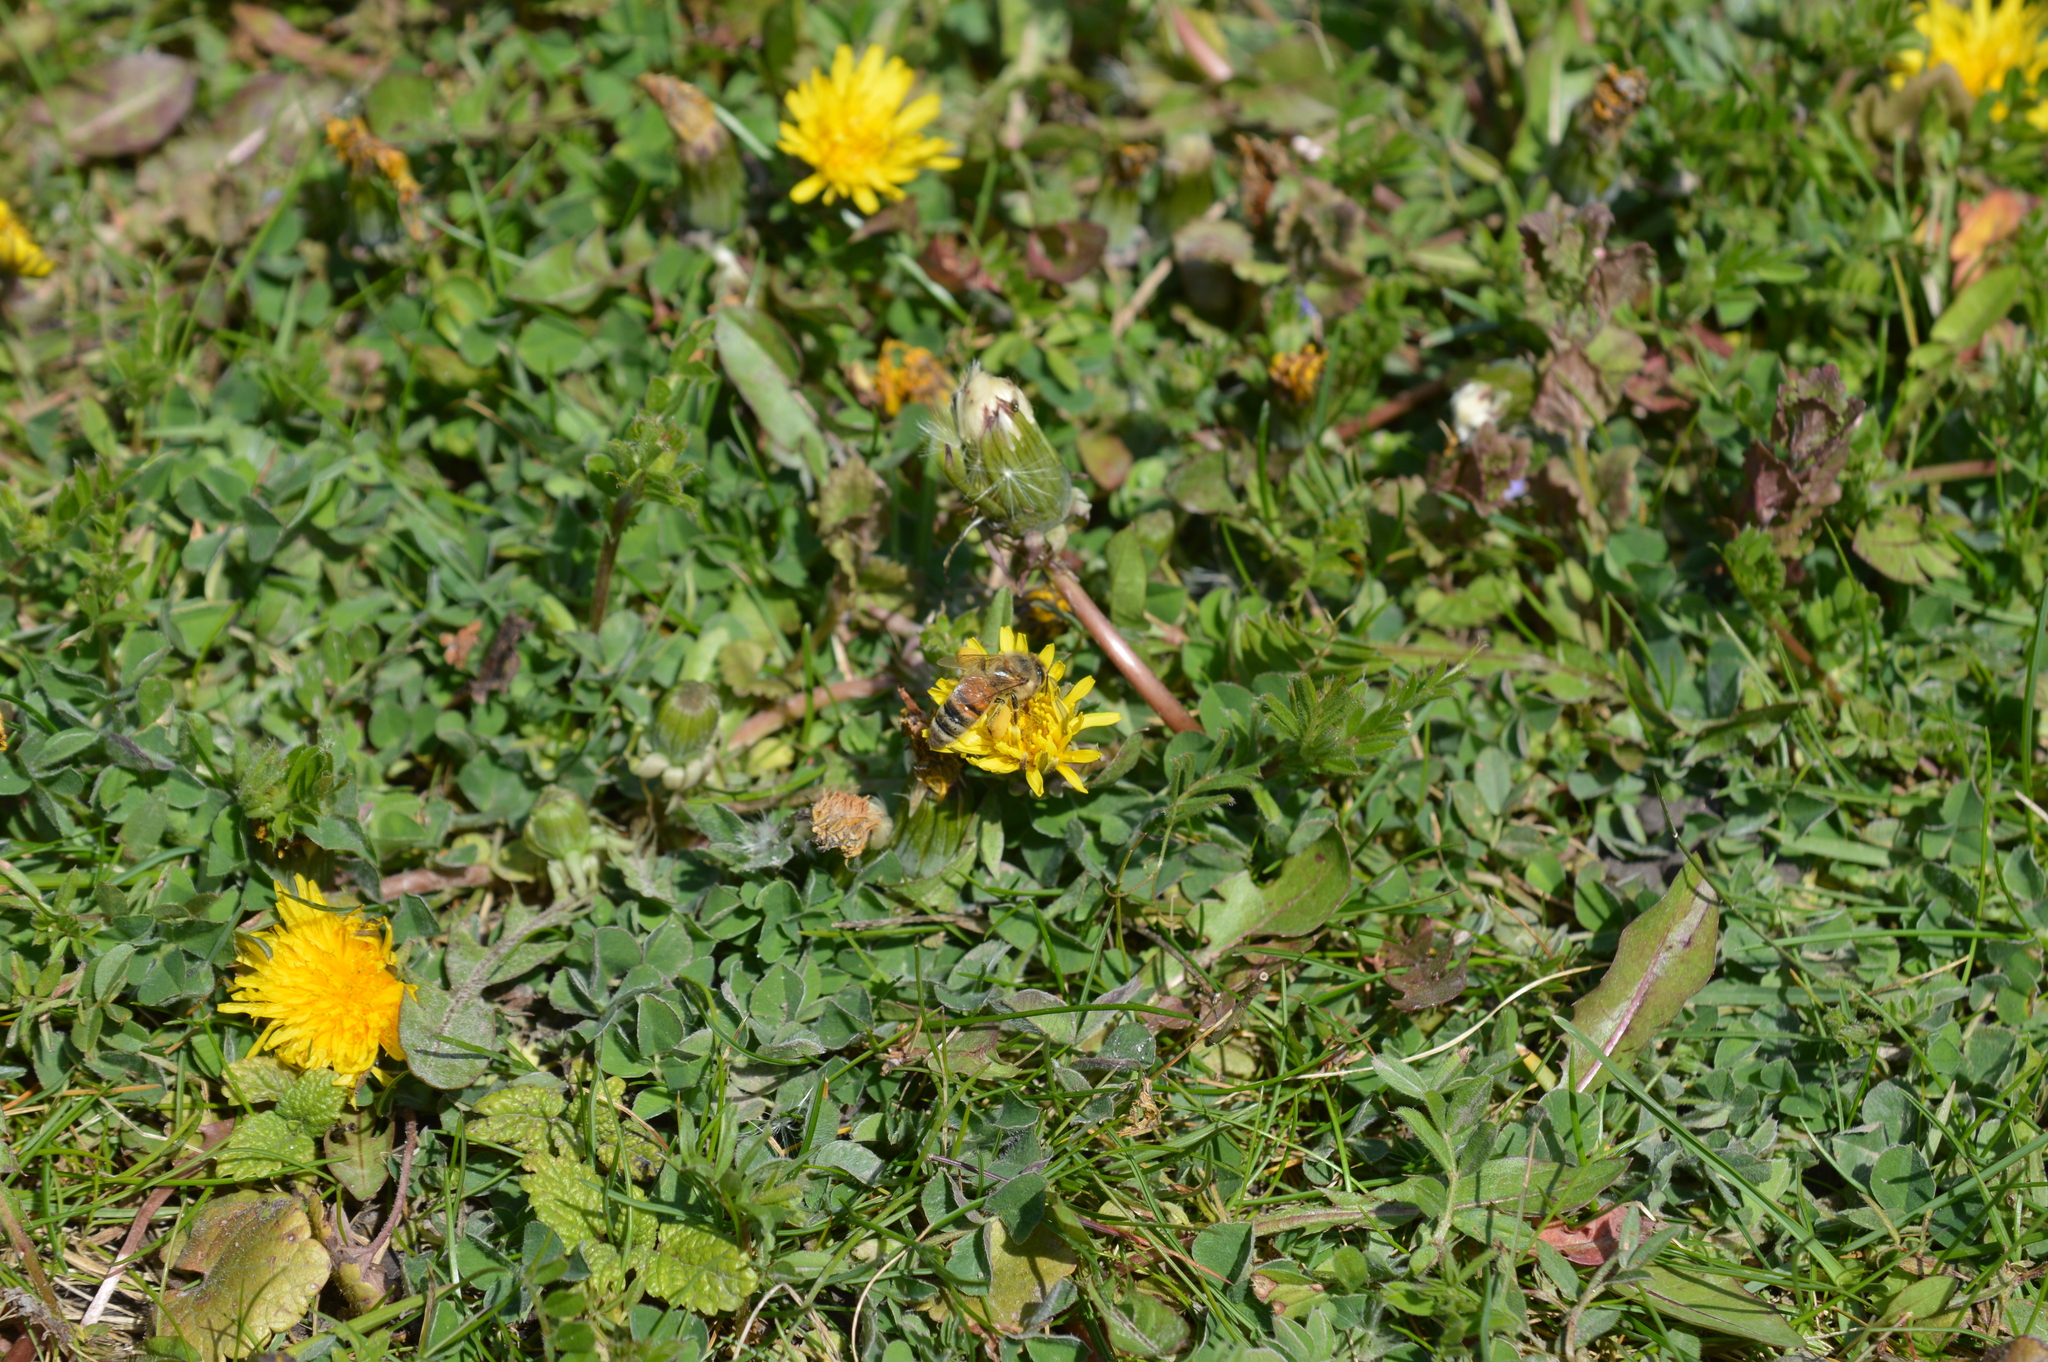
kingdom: Animalia
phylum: Arthropoda
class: Insecta
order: Hymenoptera
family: Apidae
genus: Apis
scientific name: Apis mellifera
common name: Honey bee
